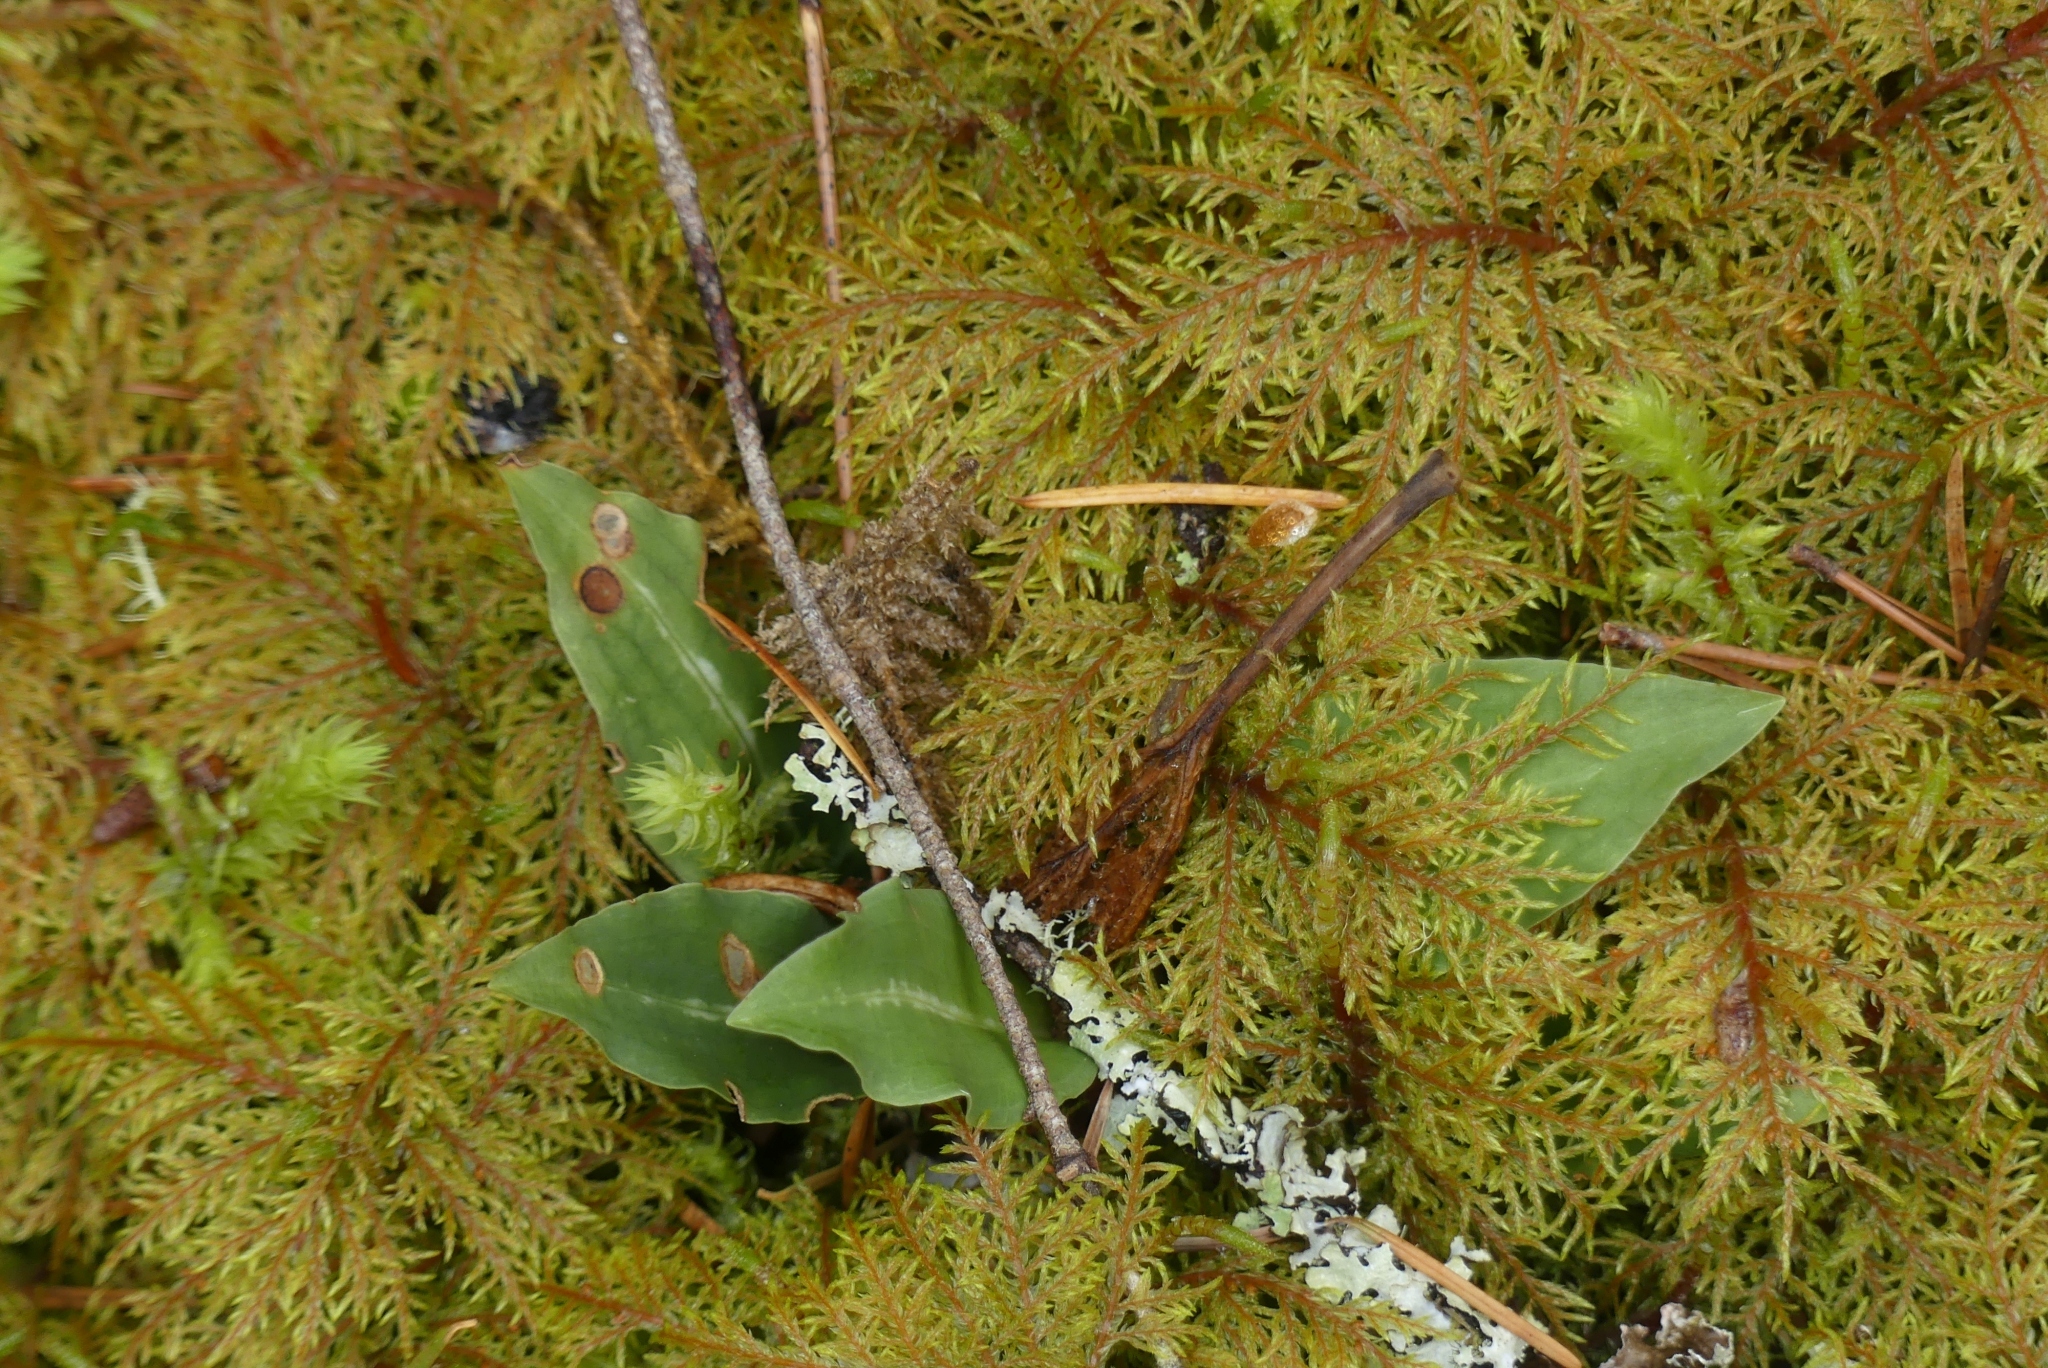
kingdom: Plantae
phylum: Tracheophyta
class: Liliopsida
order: Asparagales
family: Orchidaceae
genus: Goodyera
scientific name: Goodyera oblongifolia
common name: Giant rattlesnake-plantain
